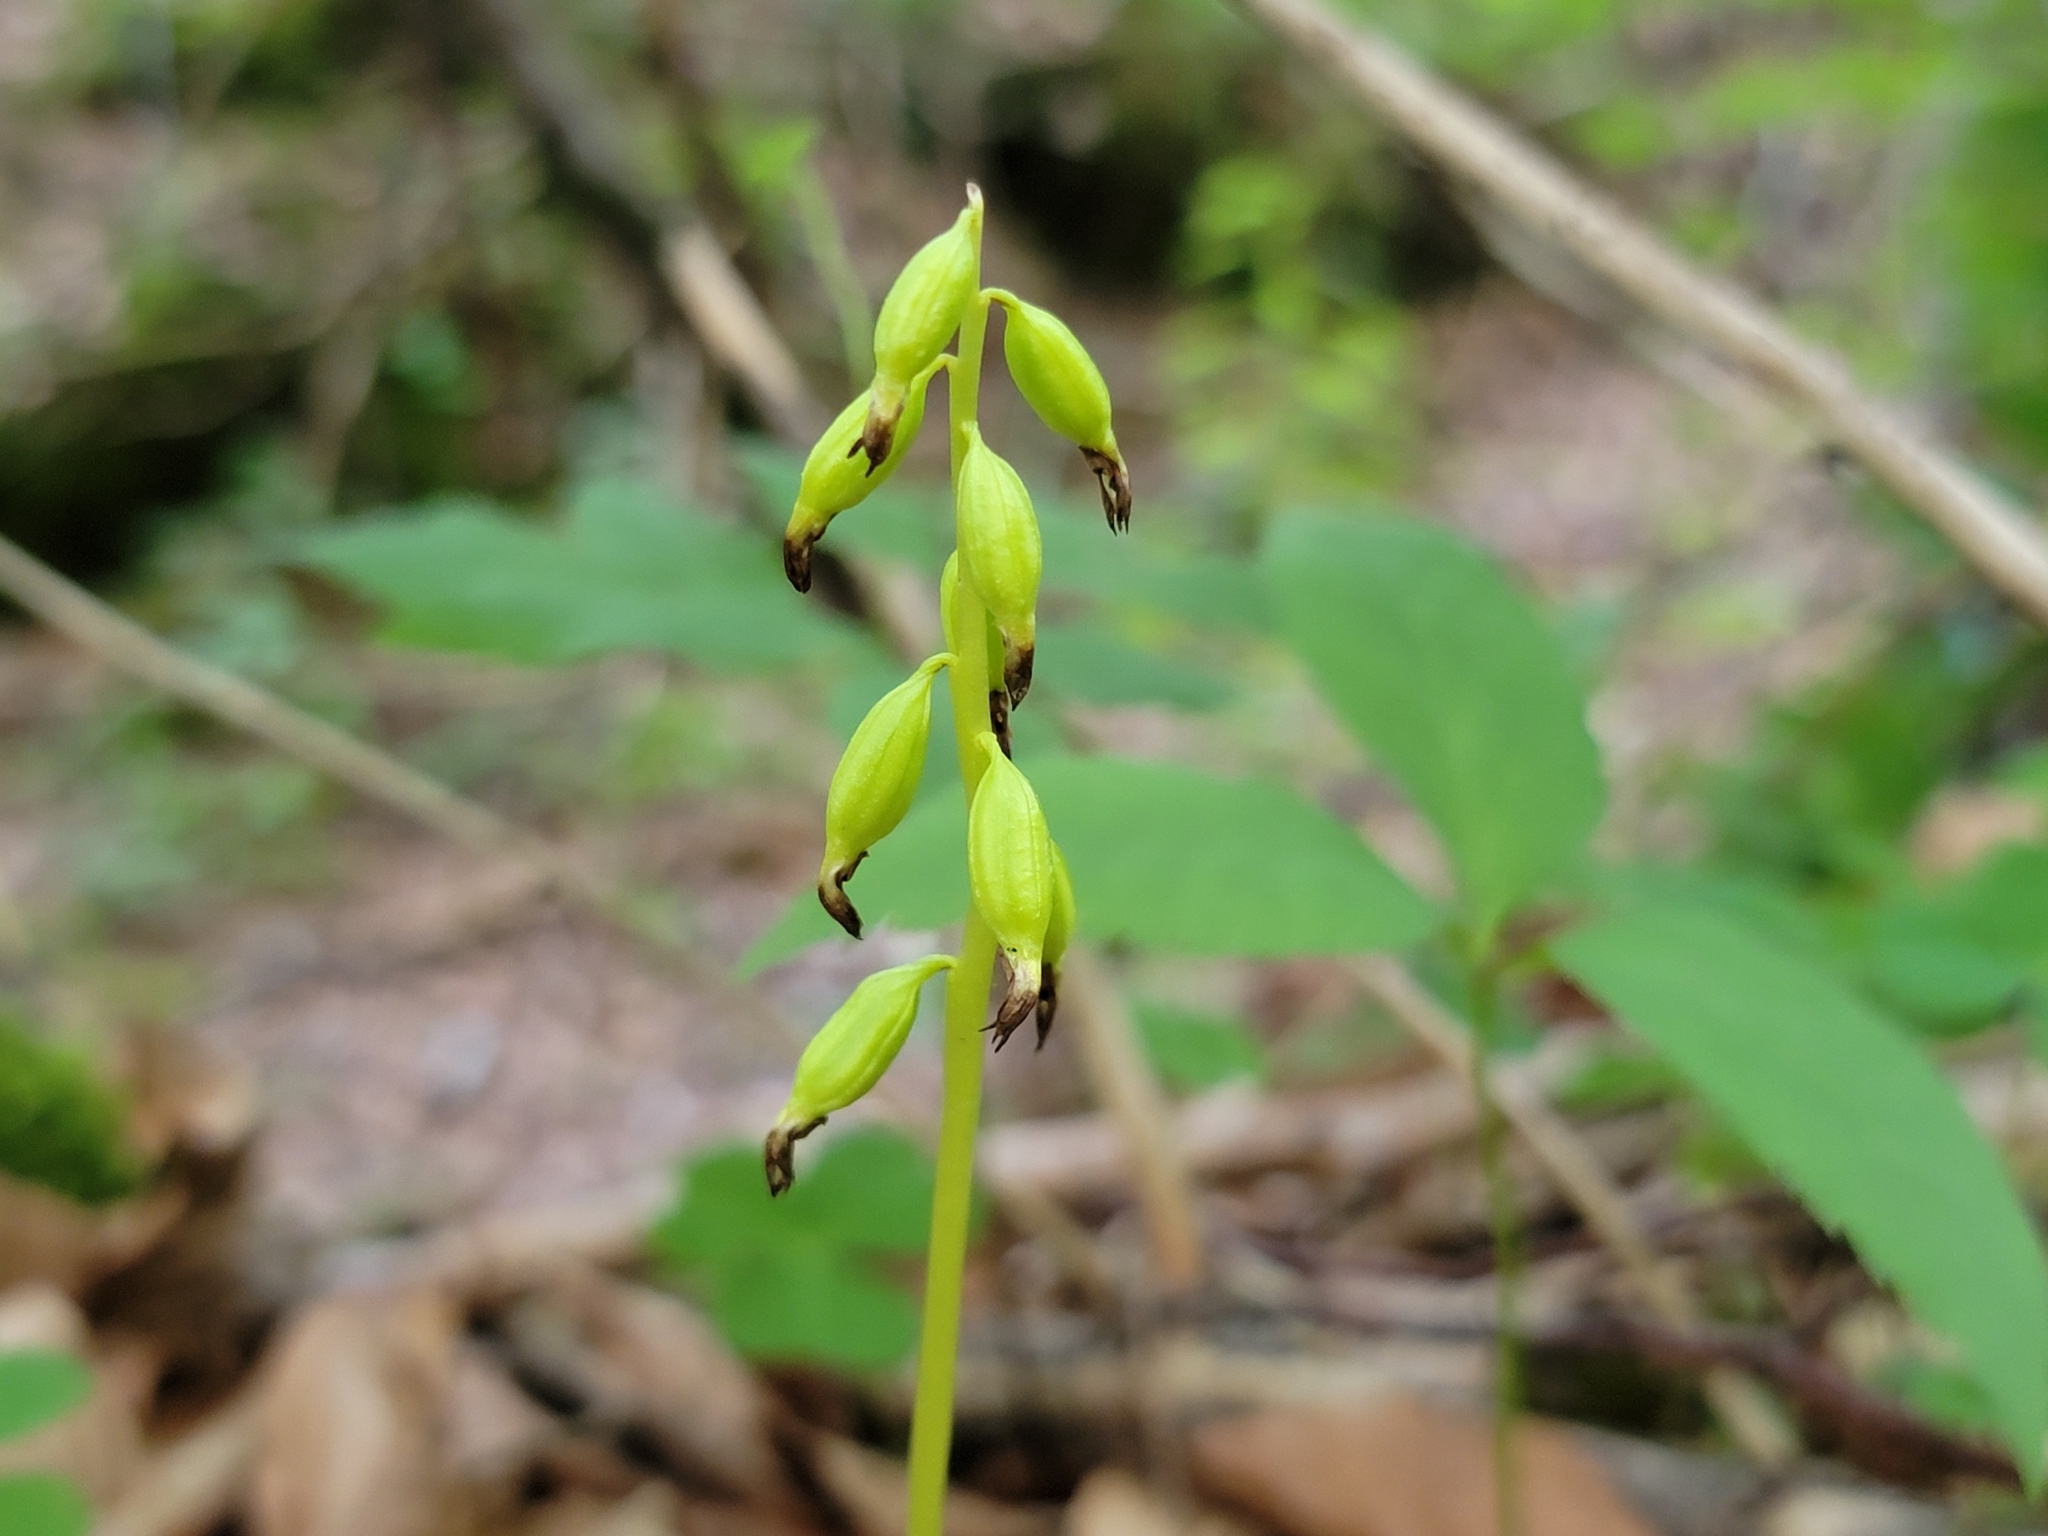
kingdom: Plantae
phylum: Tracheophyta
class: Liliopsida
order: Asparagales
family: Orchidaceae
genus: Corallorhiza
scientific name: Corallorhiza trifida
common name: Yellow coralroot
